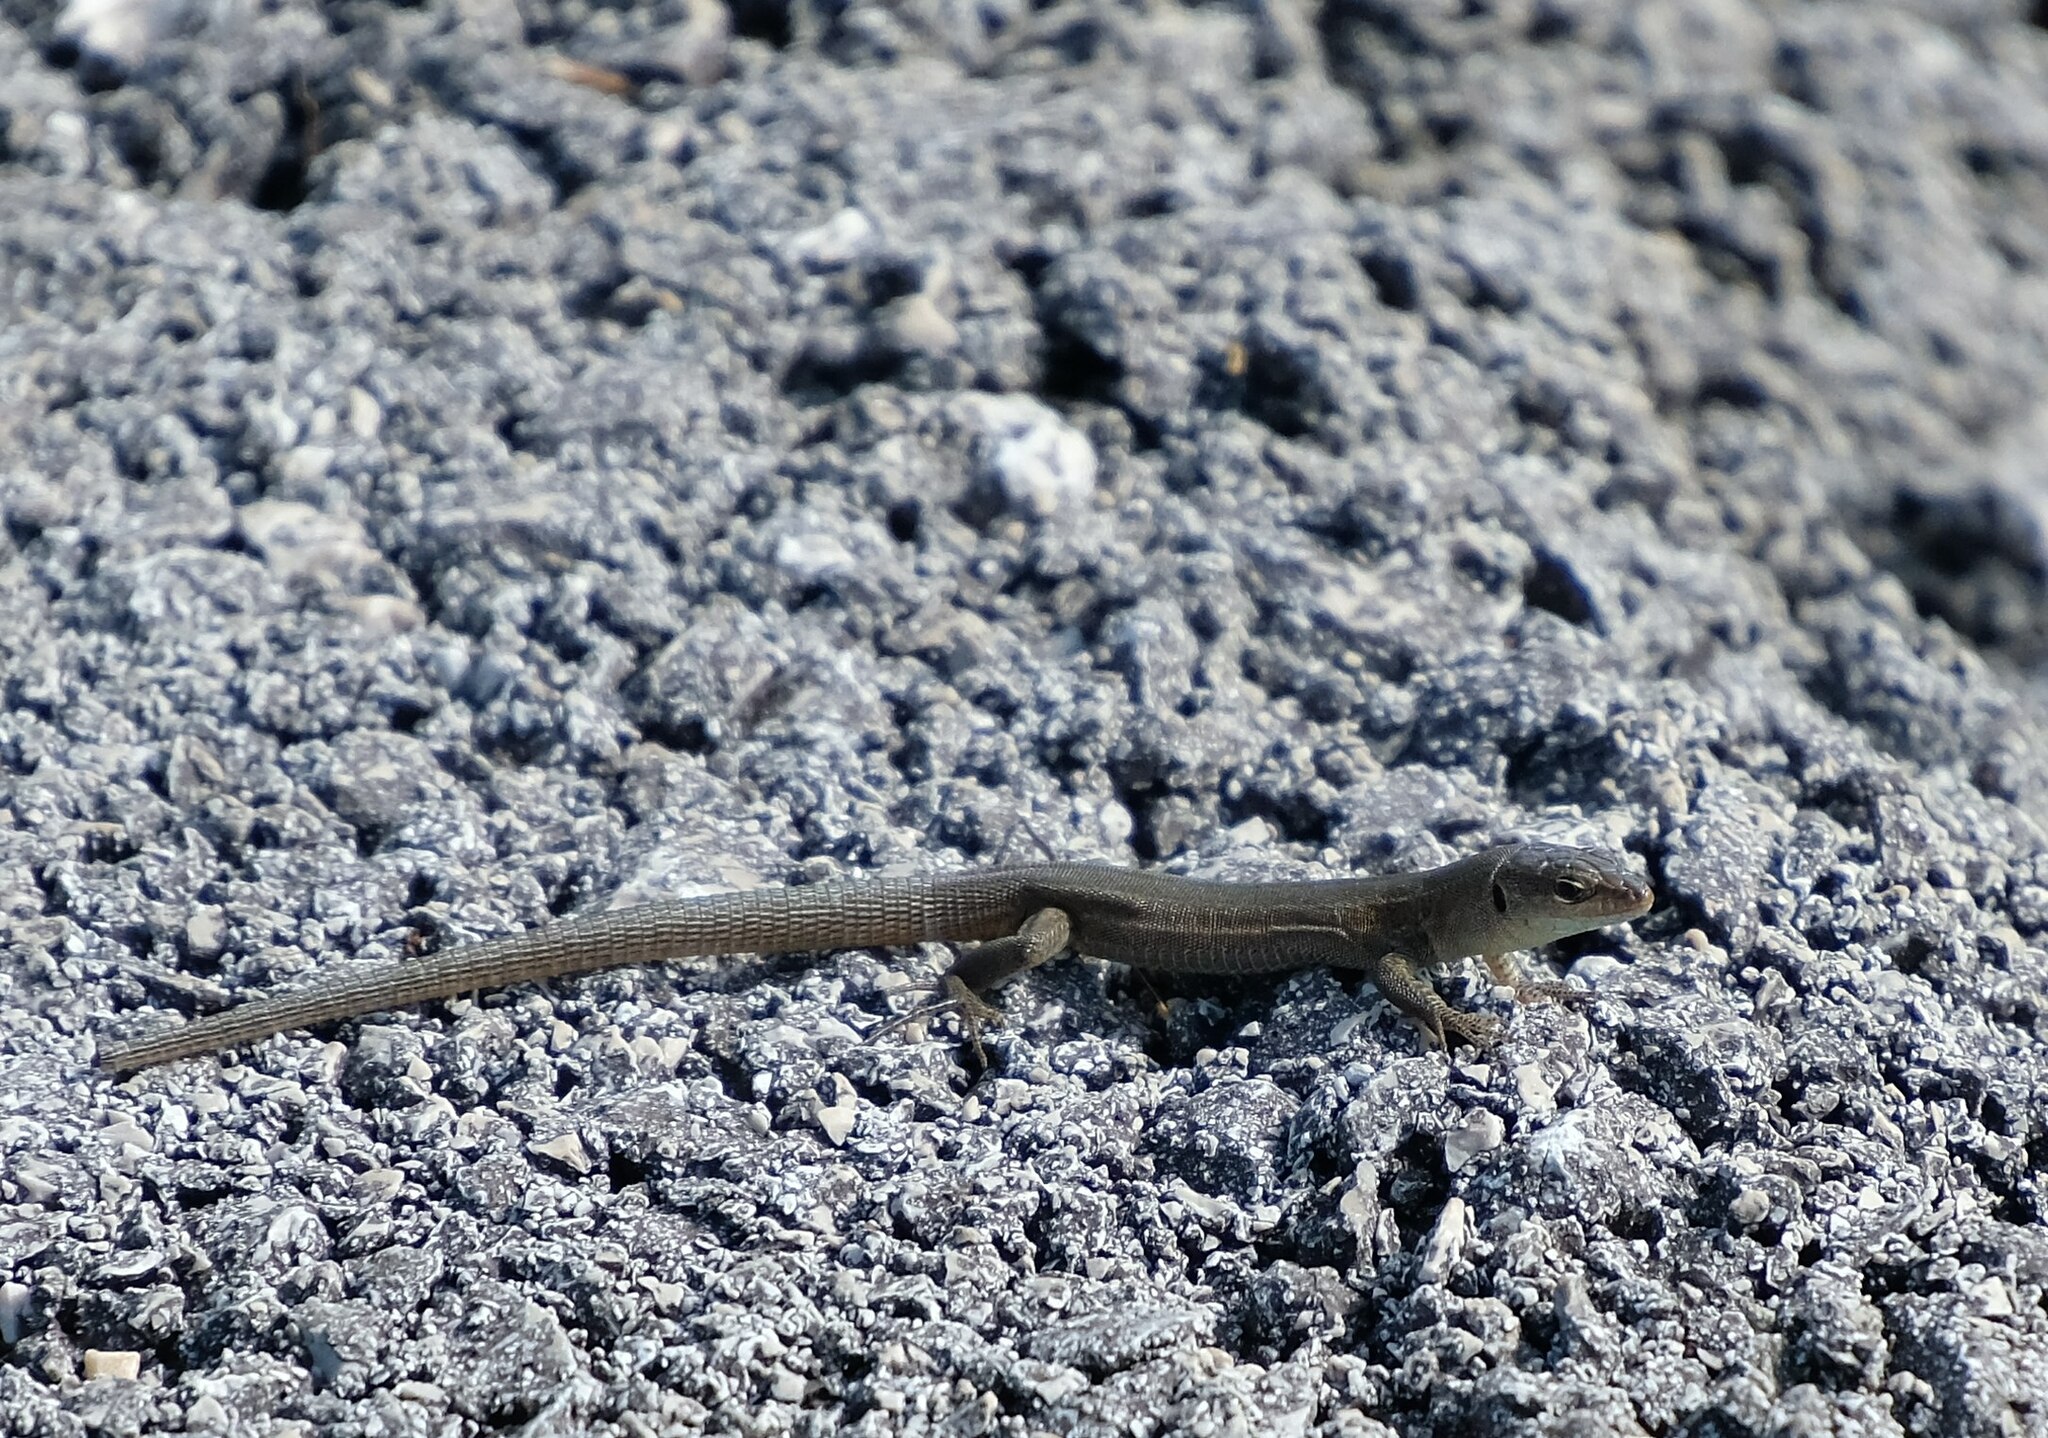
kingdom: Animalia
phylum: Chordata
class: Squamata
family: Lacertidae
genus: Podarcis
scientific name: Podarcis melisellensis
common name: Dalmatian wall lizard
